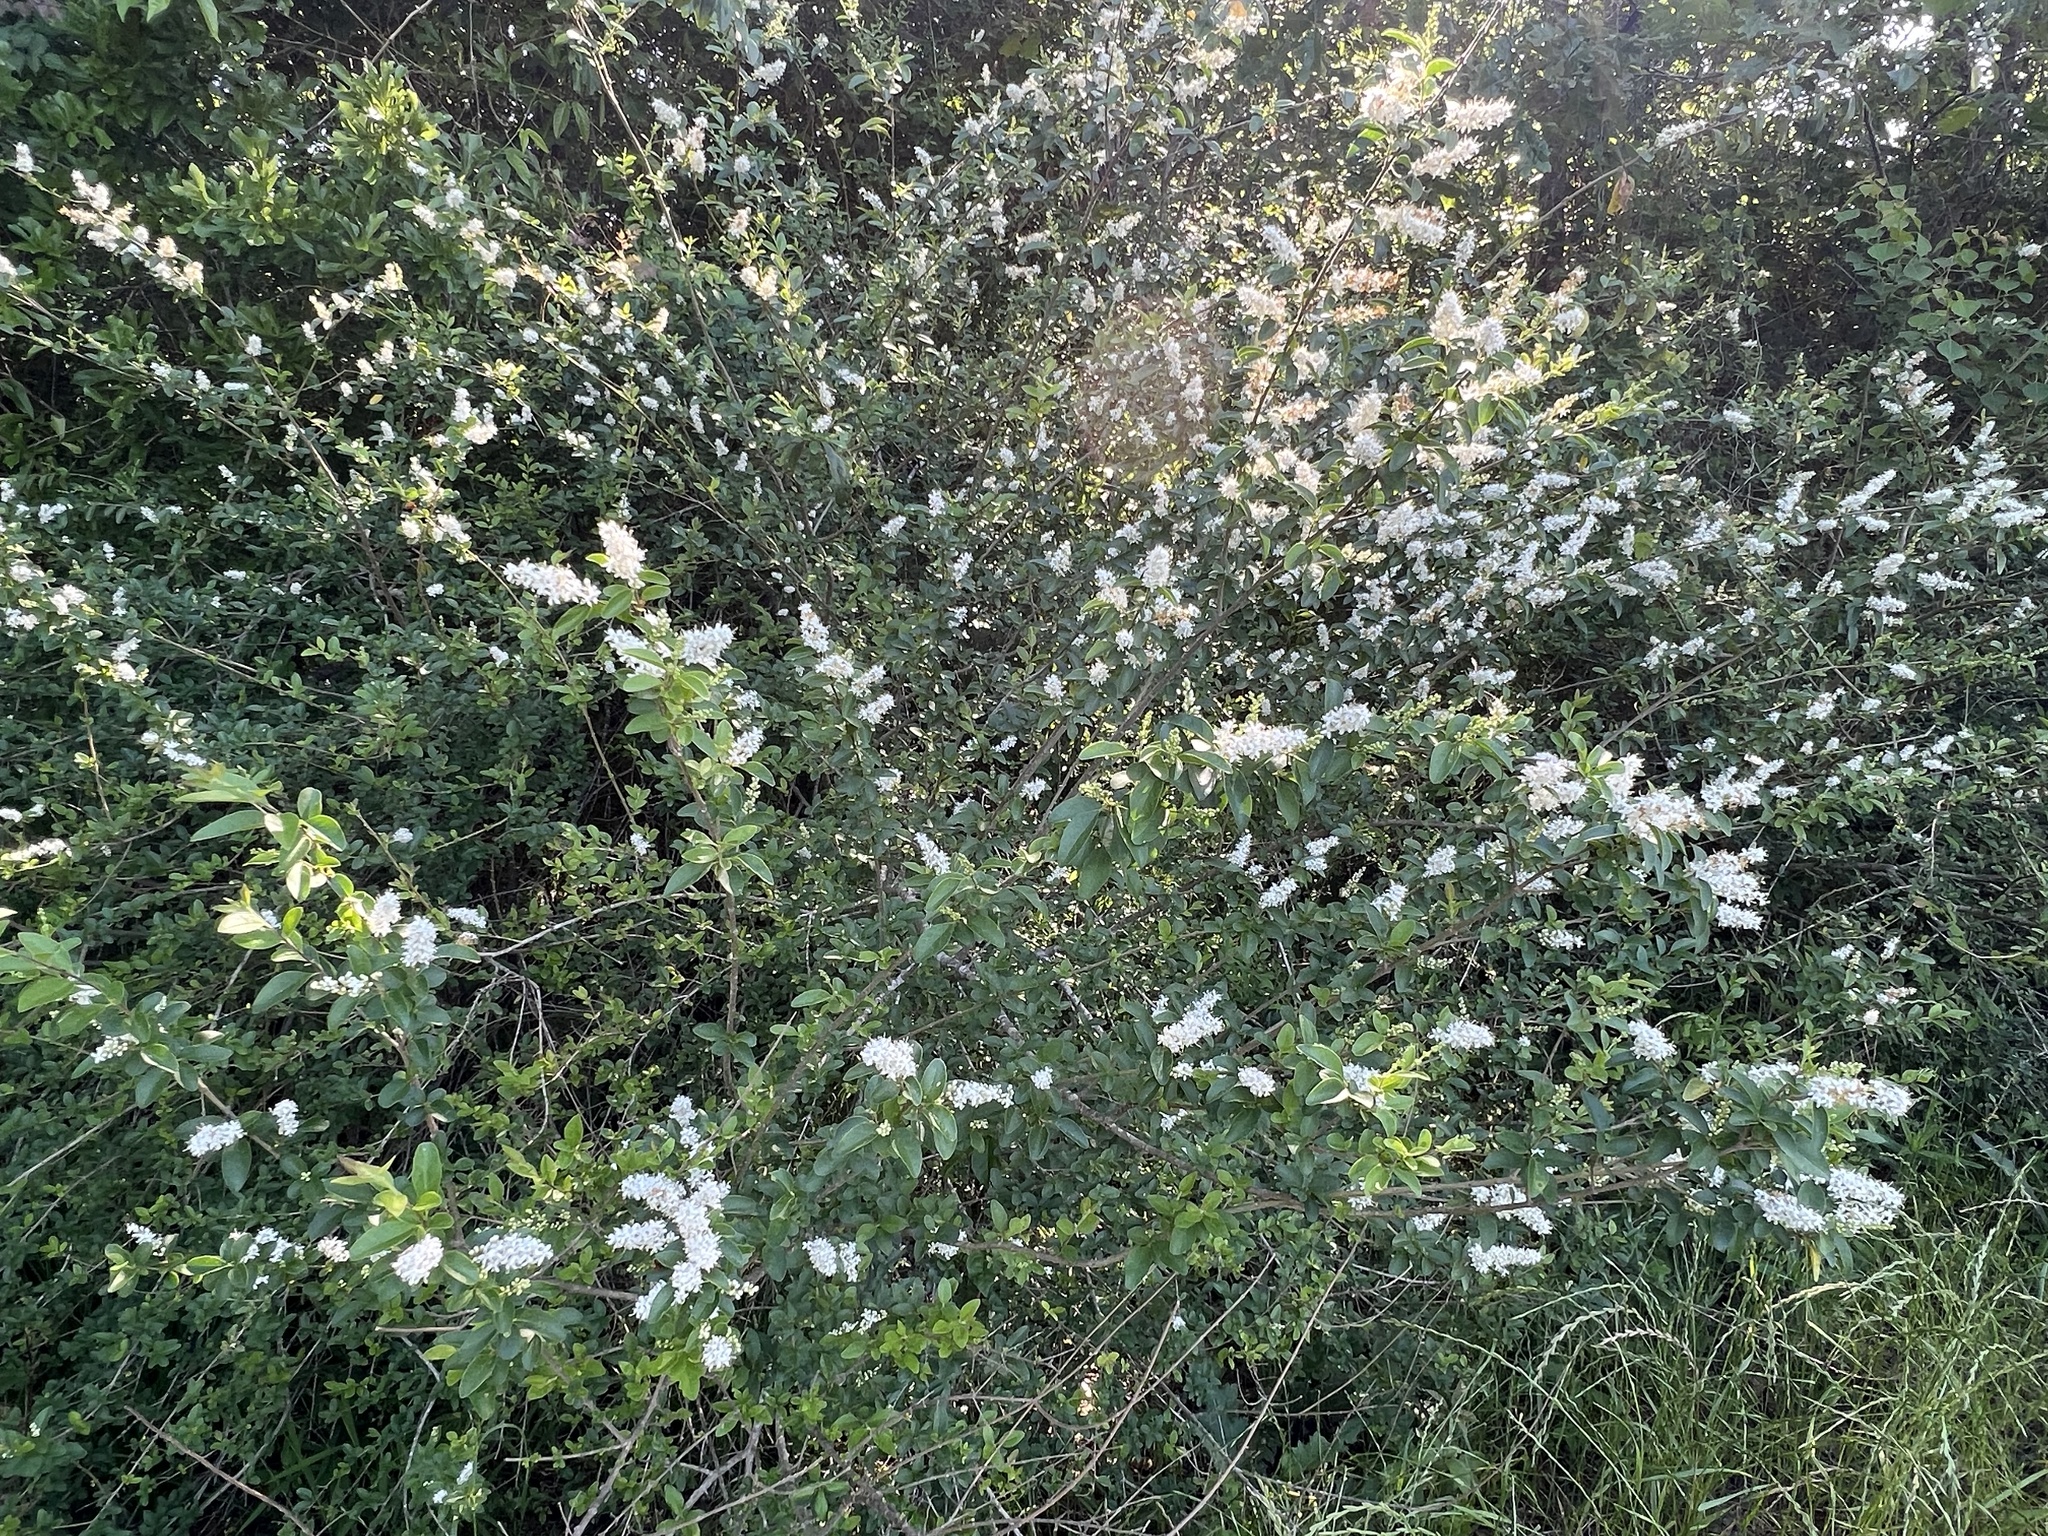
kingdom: Plantae
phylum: Tracheophyta
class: Magnoliopsida
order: Lamiales
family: Oleaceae
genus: Ligustrum
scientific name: Ligustrum sinense
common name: Chinese privet
